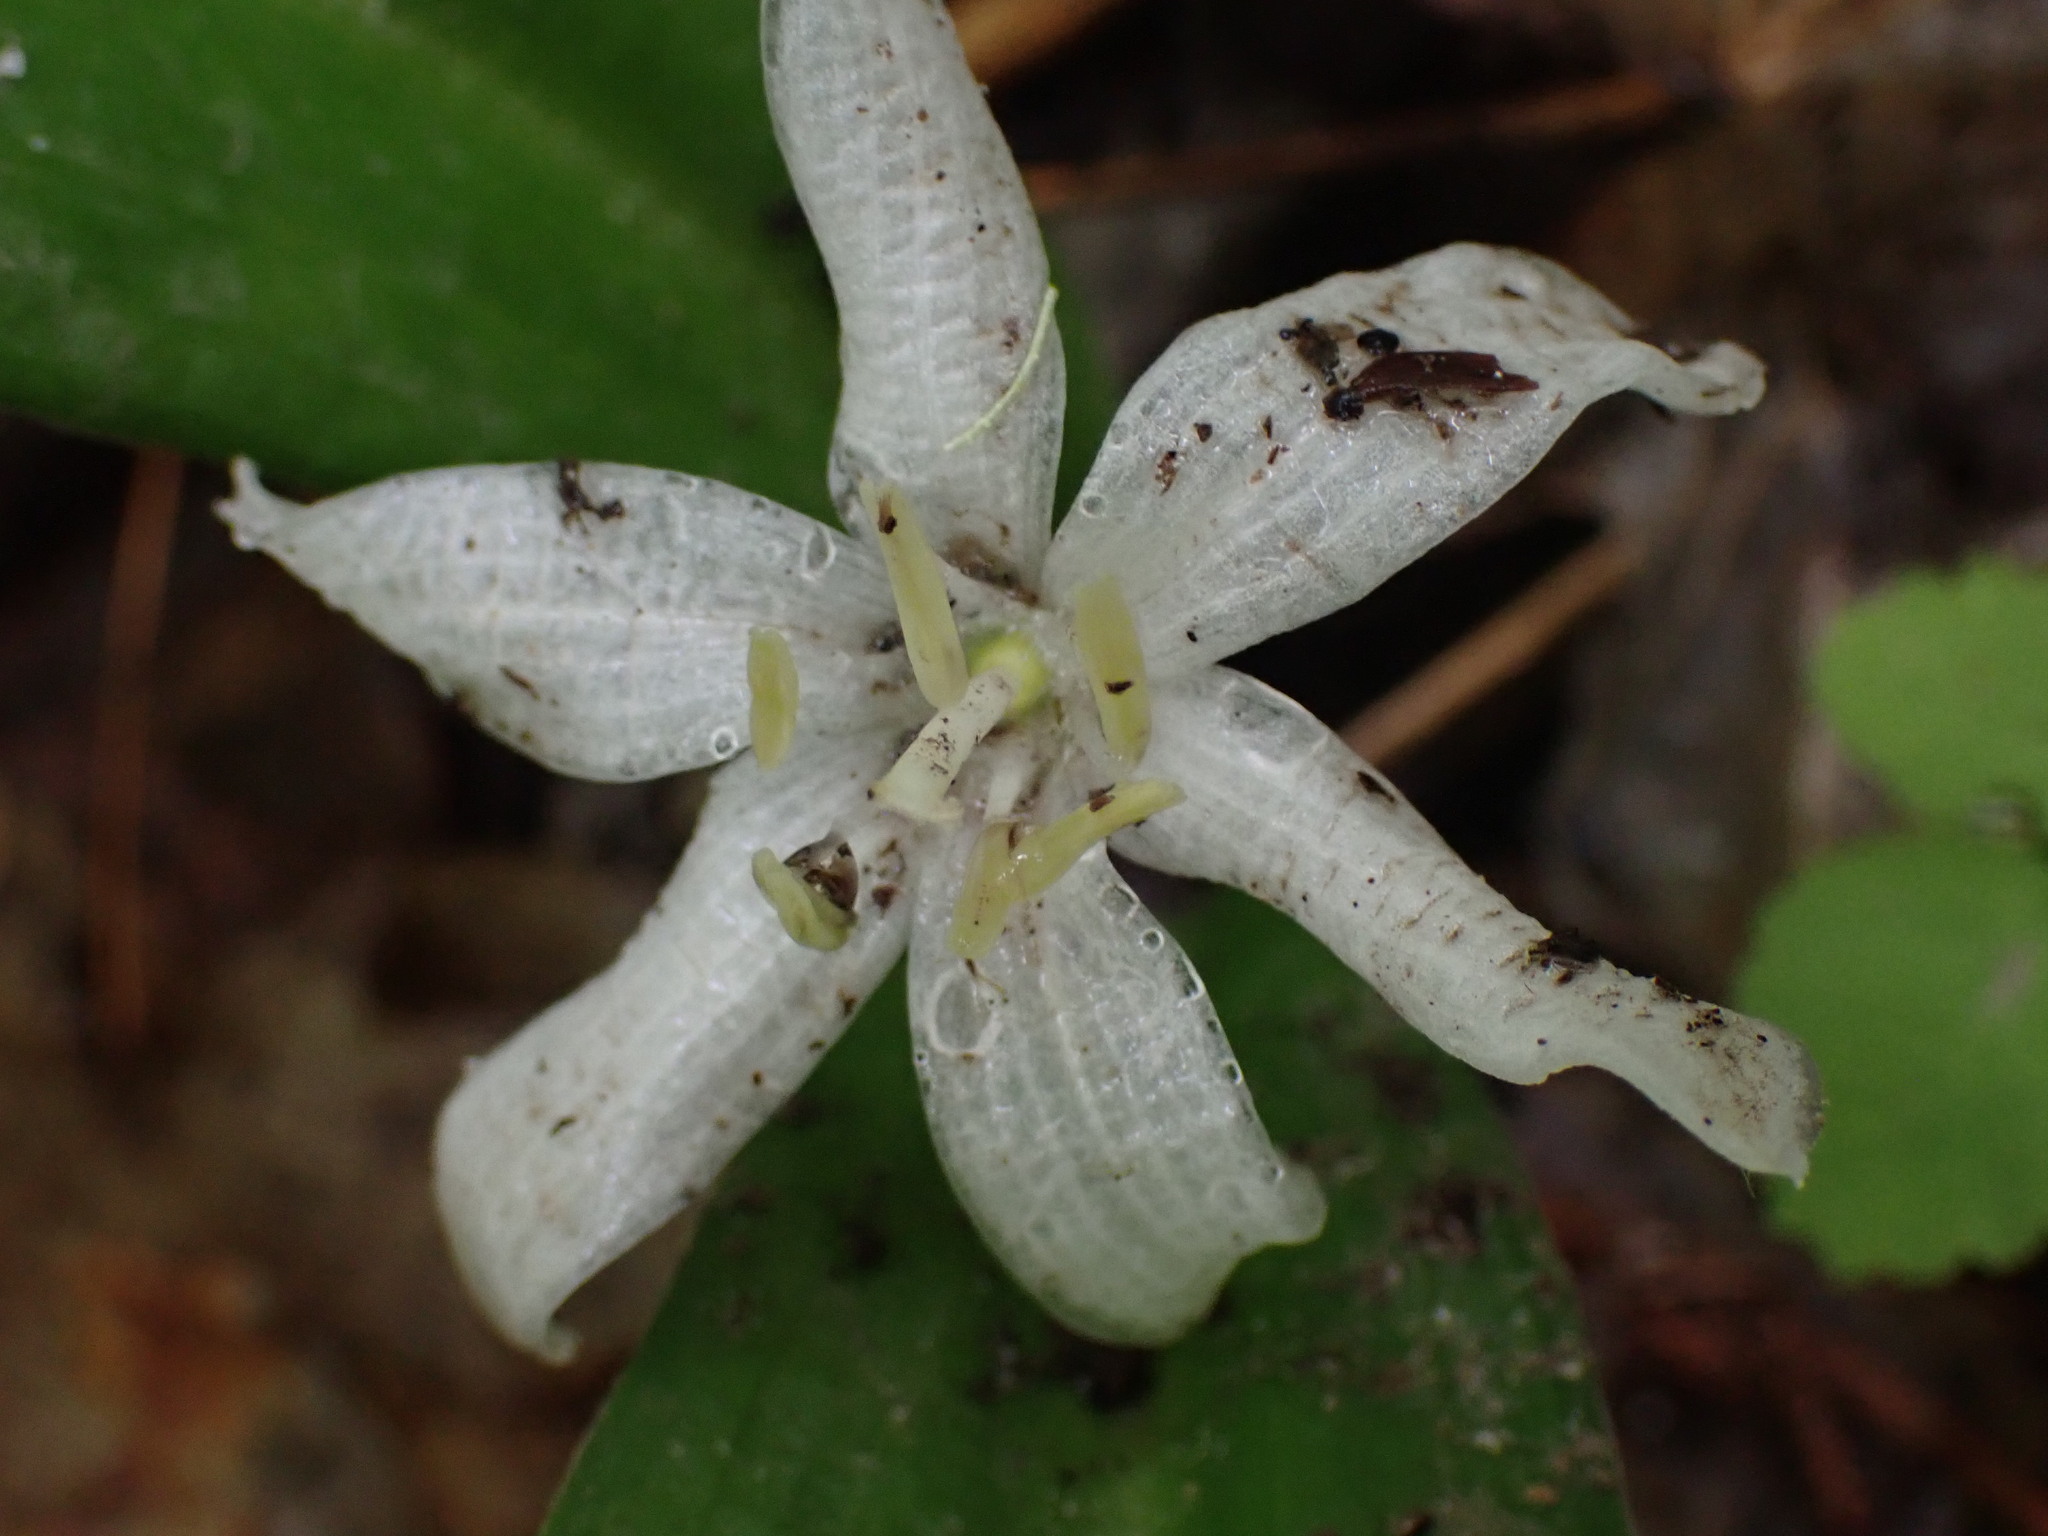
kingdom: Plantae
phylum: Tracheophyta
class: Liliopsida
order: Liliales
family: Liliaceae
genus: Clintonia
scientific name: Clintonia uniflora
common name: Queen's cup
